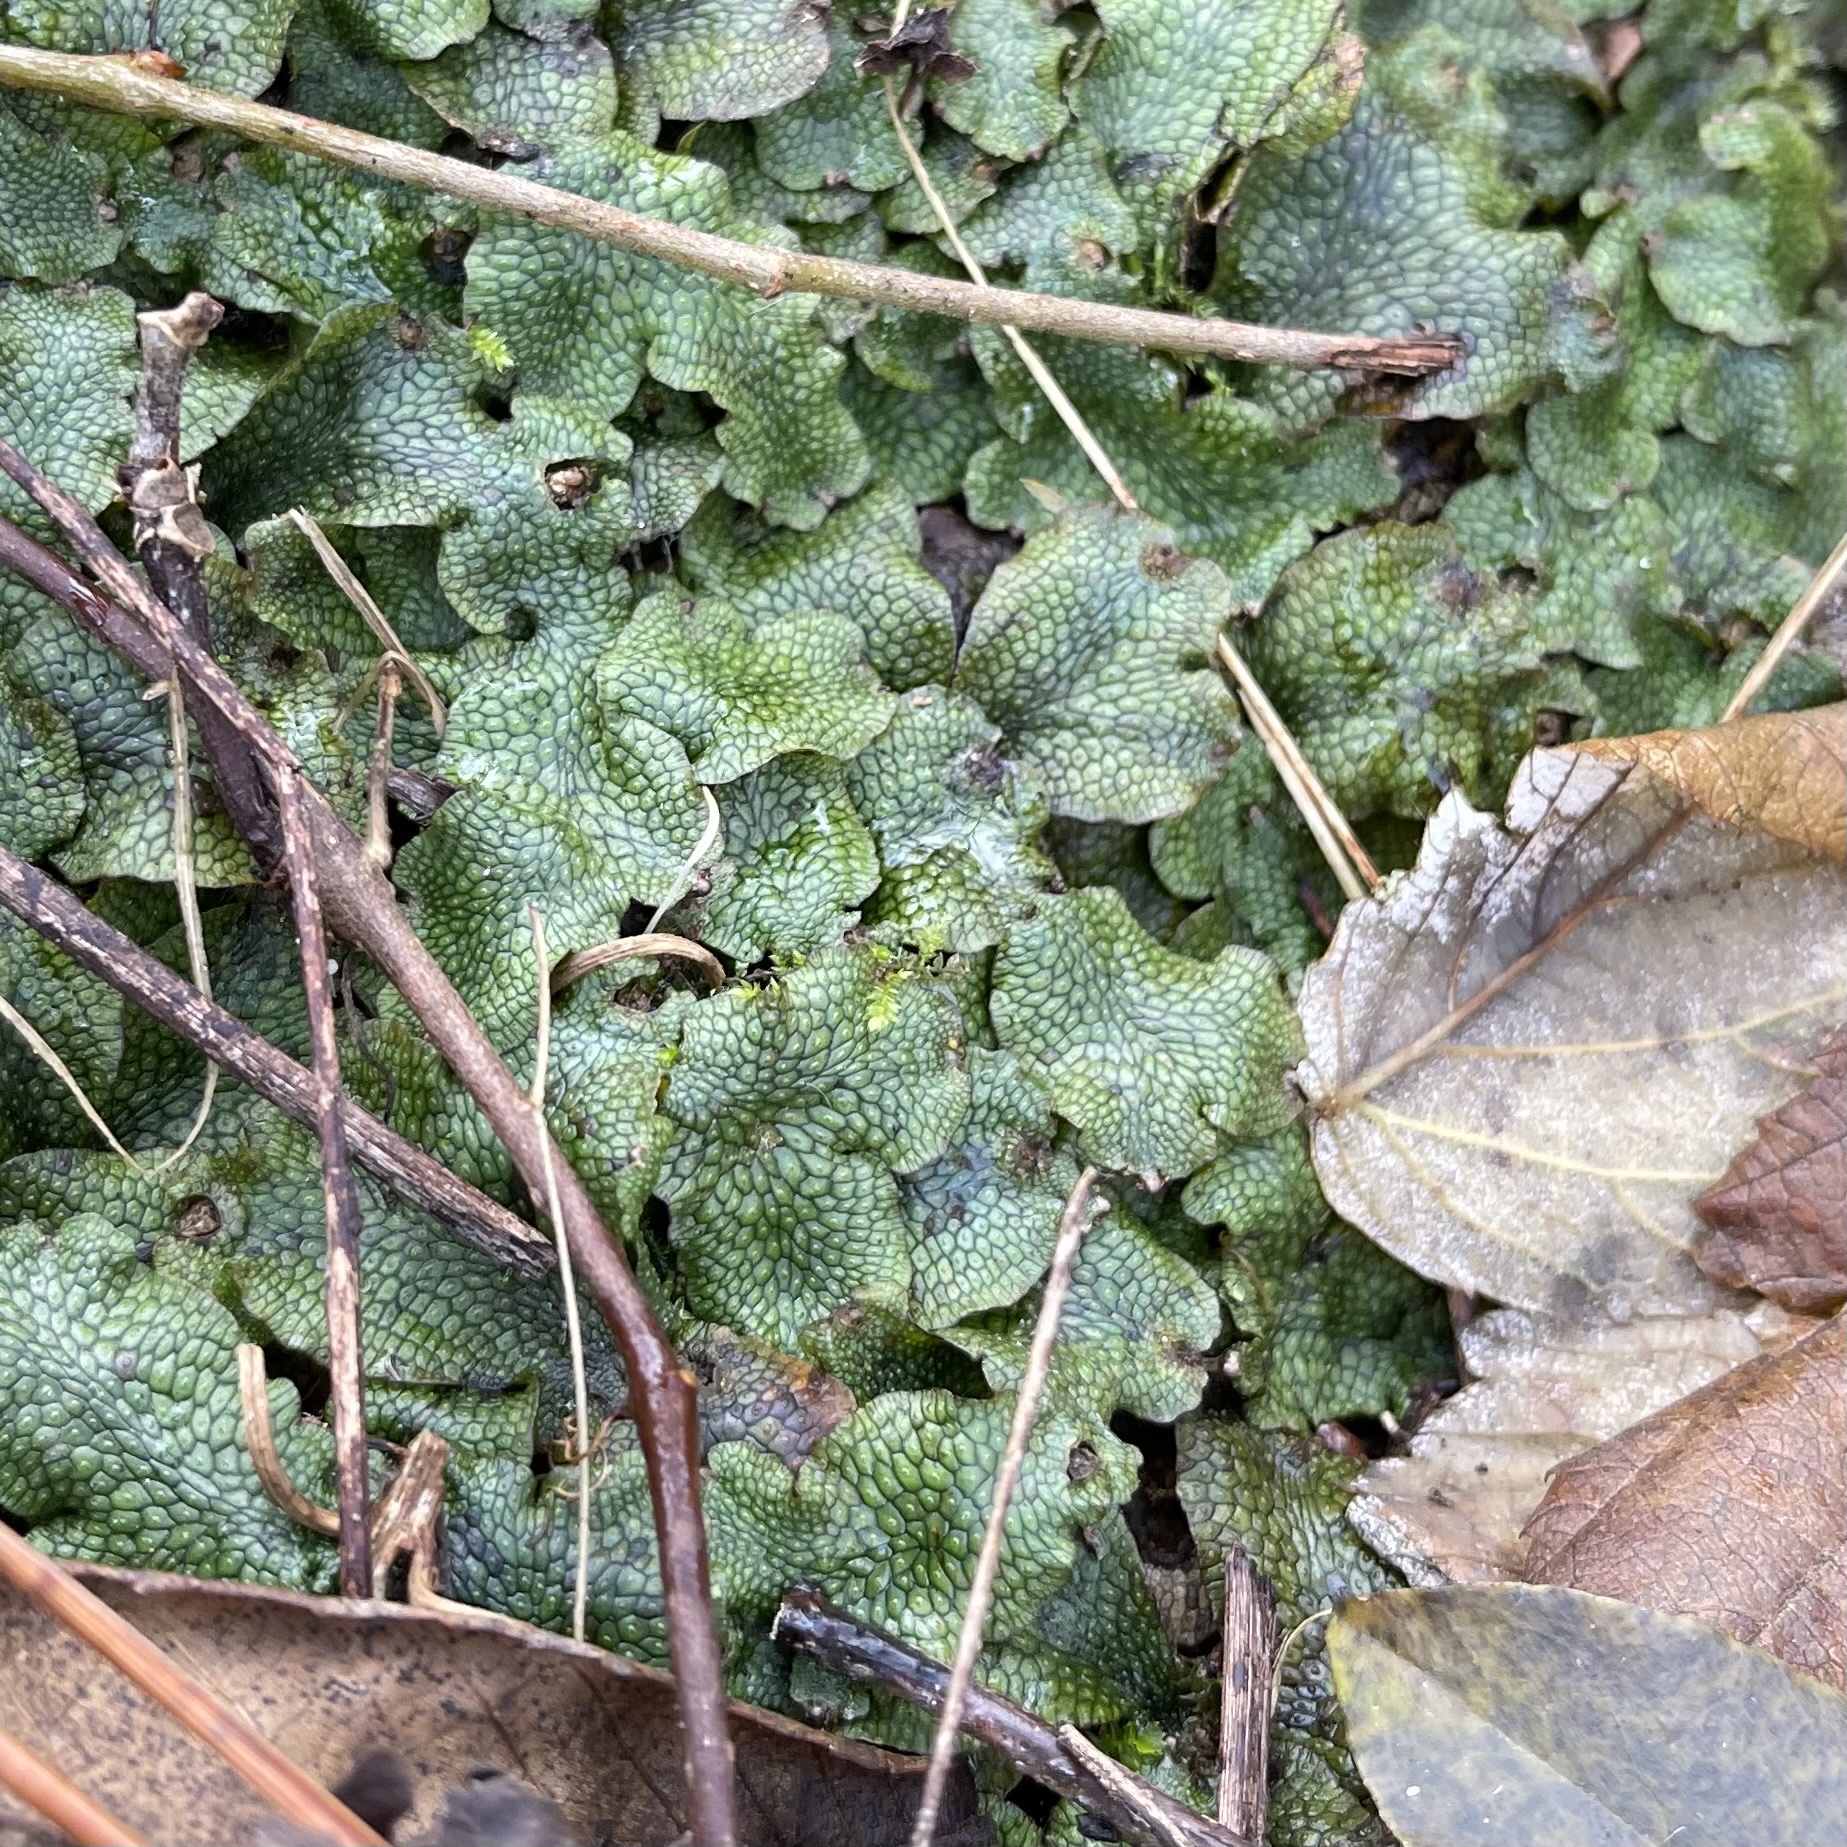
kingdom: Plantae
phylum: Marchantiophyta
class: Marchantiopsida
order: Marchantiales
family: Conocephalaceae
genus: Conocephalum
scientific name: Conocephalum salebrosum
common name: Cat-tongue liverwort
